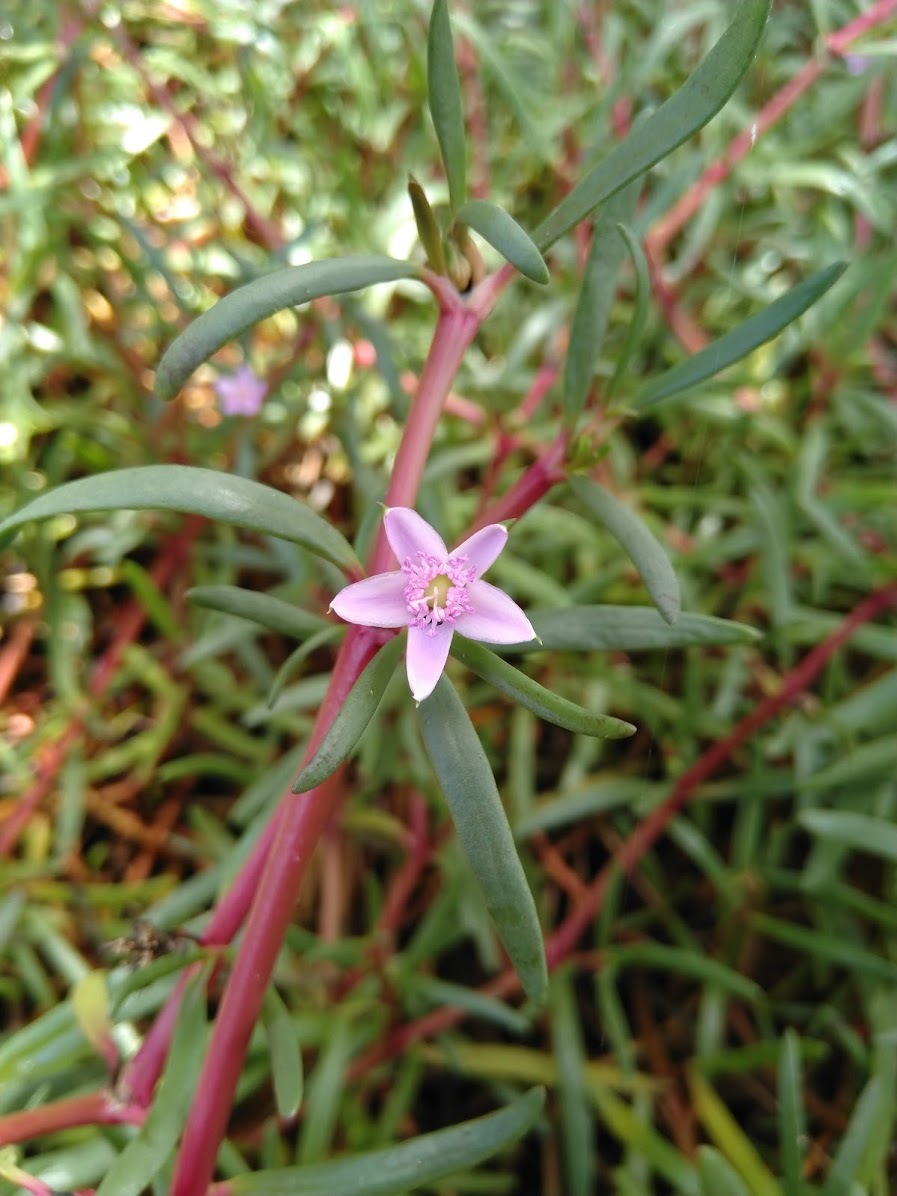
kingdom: Plantae
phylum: Tracheophyta
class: Magnoliopsida
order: Caryophyllales
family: Aizoaceae
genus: Sesuvium
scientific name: Sesuvium portulacastrum
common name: Sea-purslane
